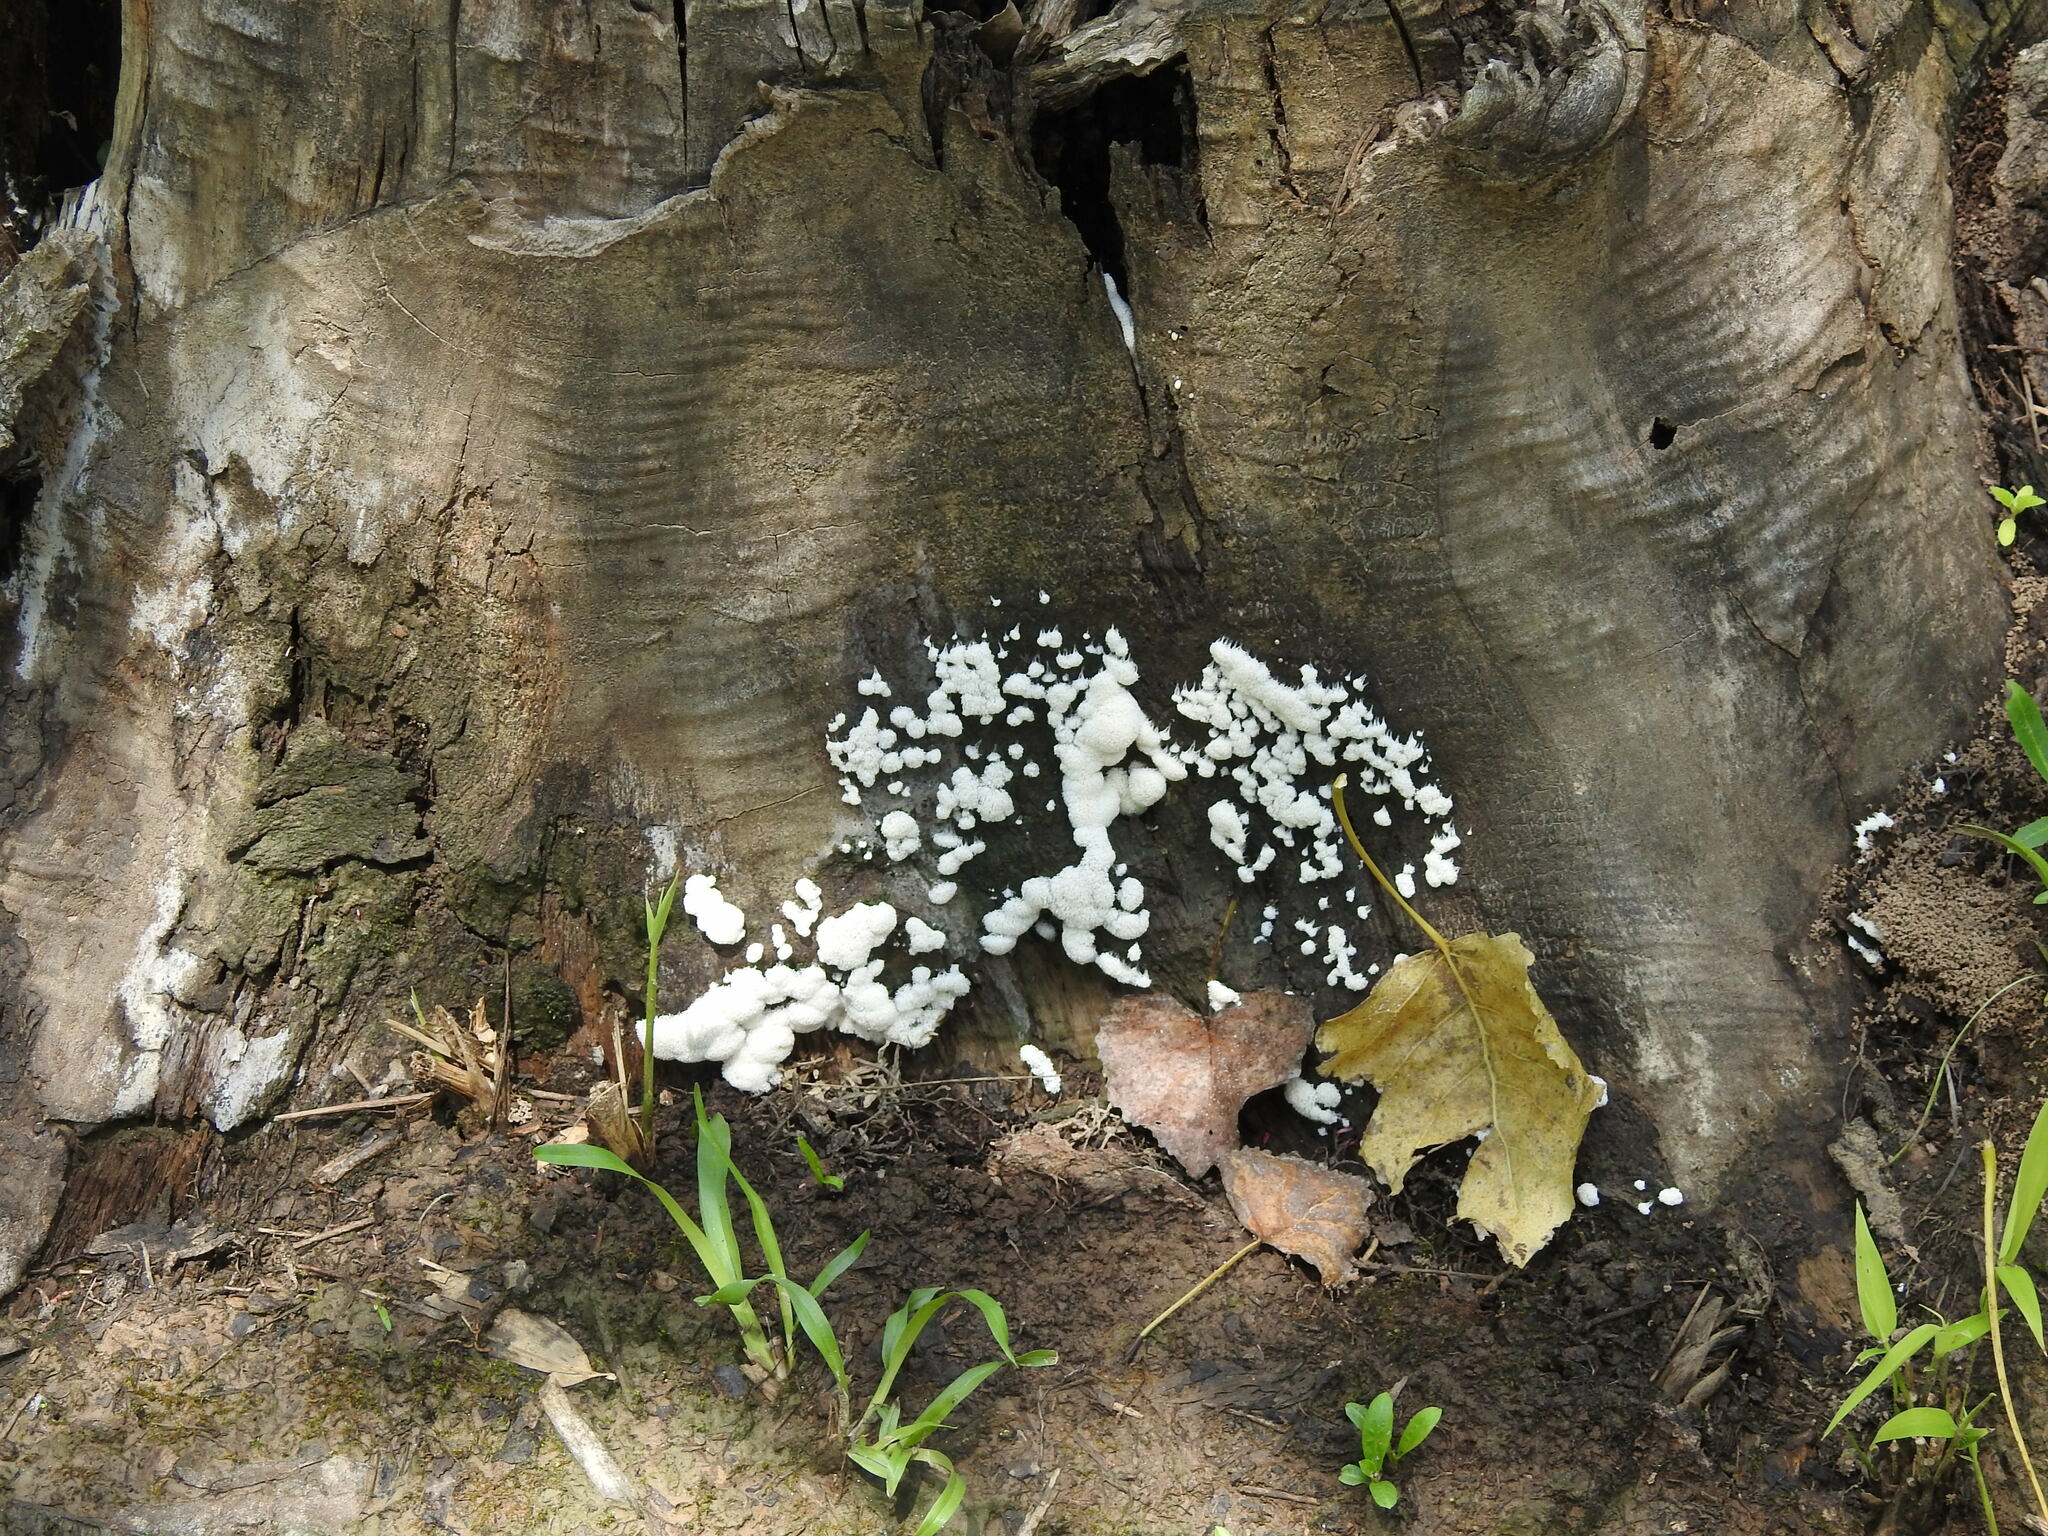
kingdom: Protozoa
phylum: Mycetozoa
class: Protosteliomycetes
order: Ceratiomyxales
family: Ceratiomyxaceae
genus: Ceratiomyxa
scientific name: Ceratiomyxa fruticulosa
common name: Honeycomb coral slime mold
